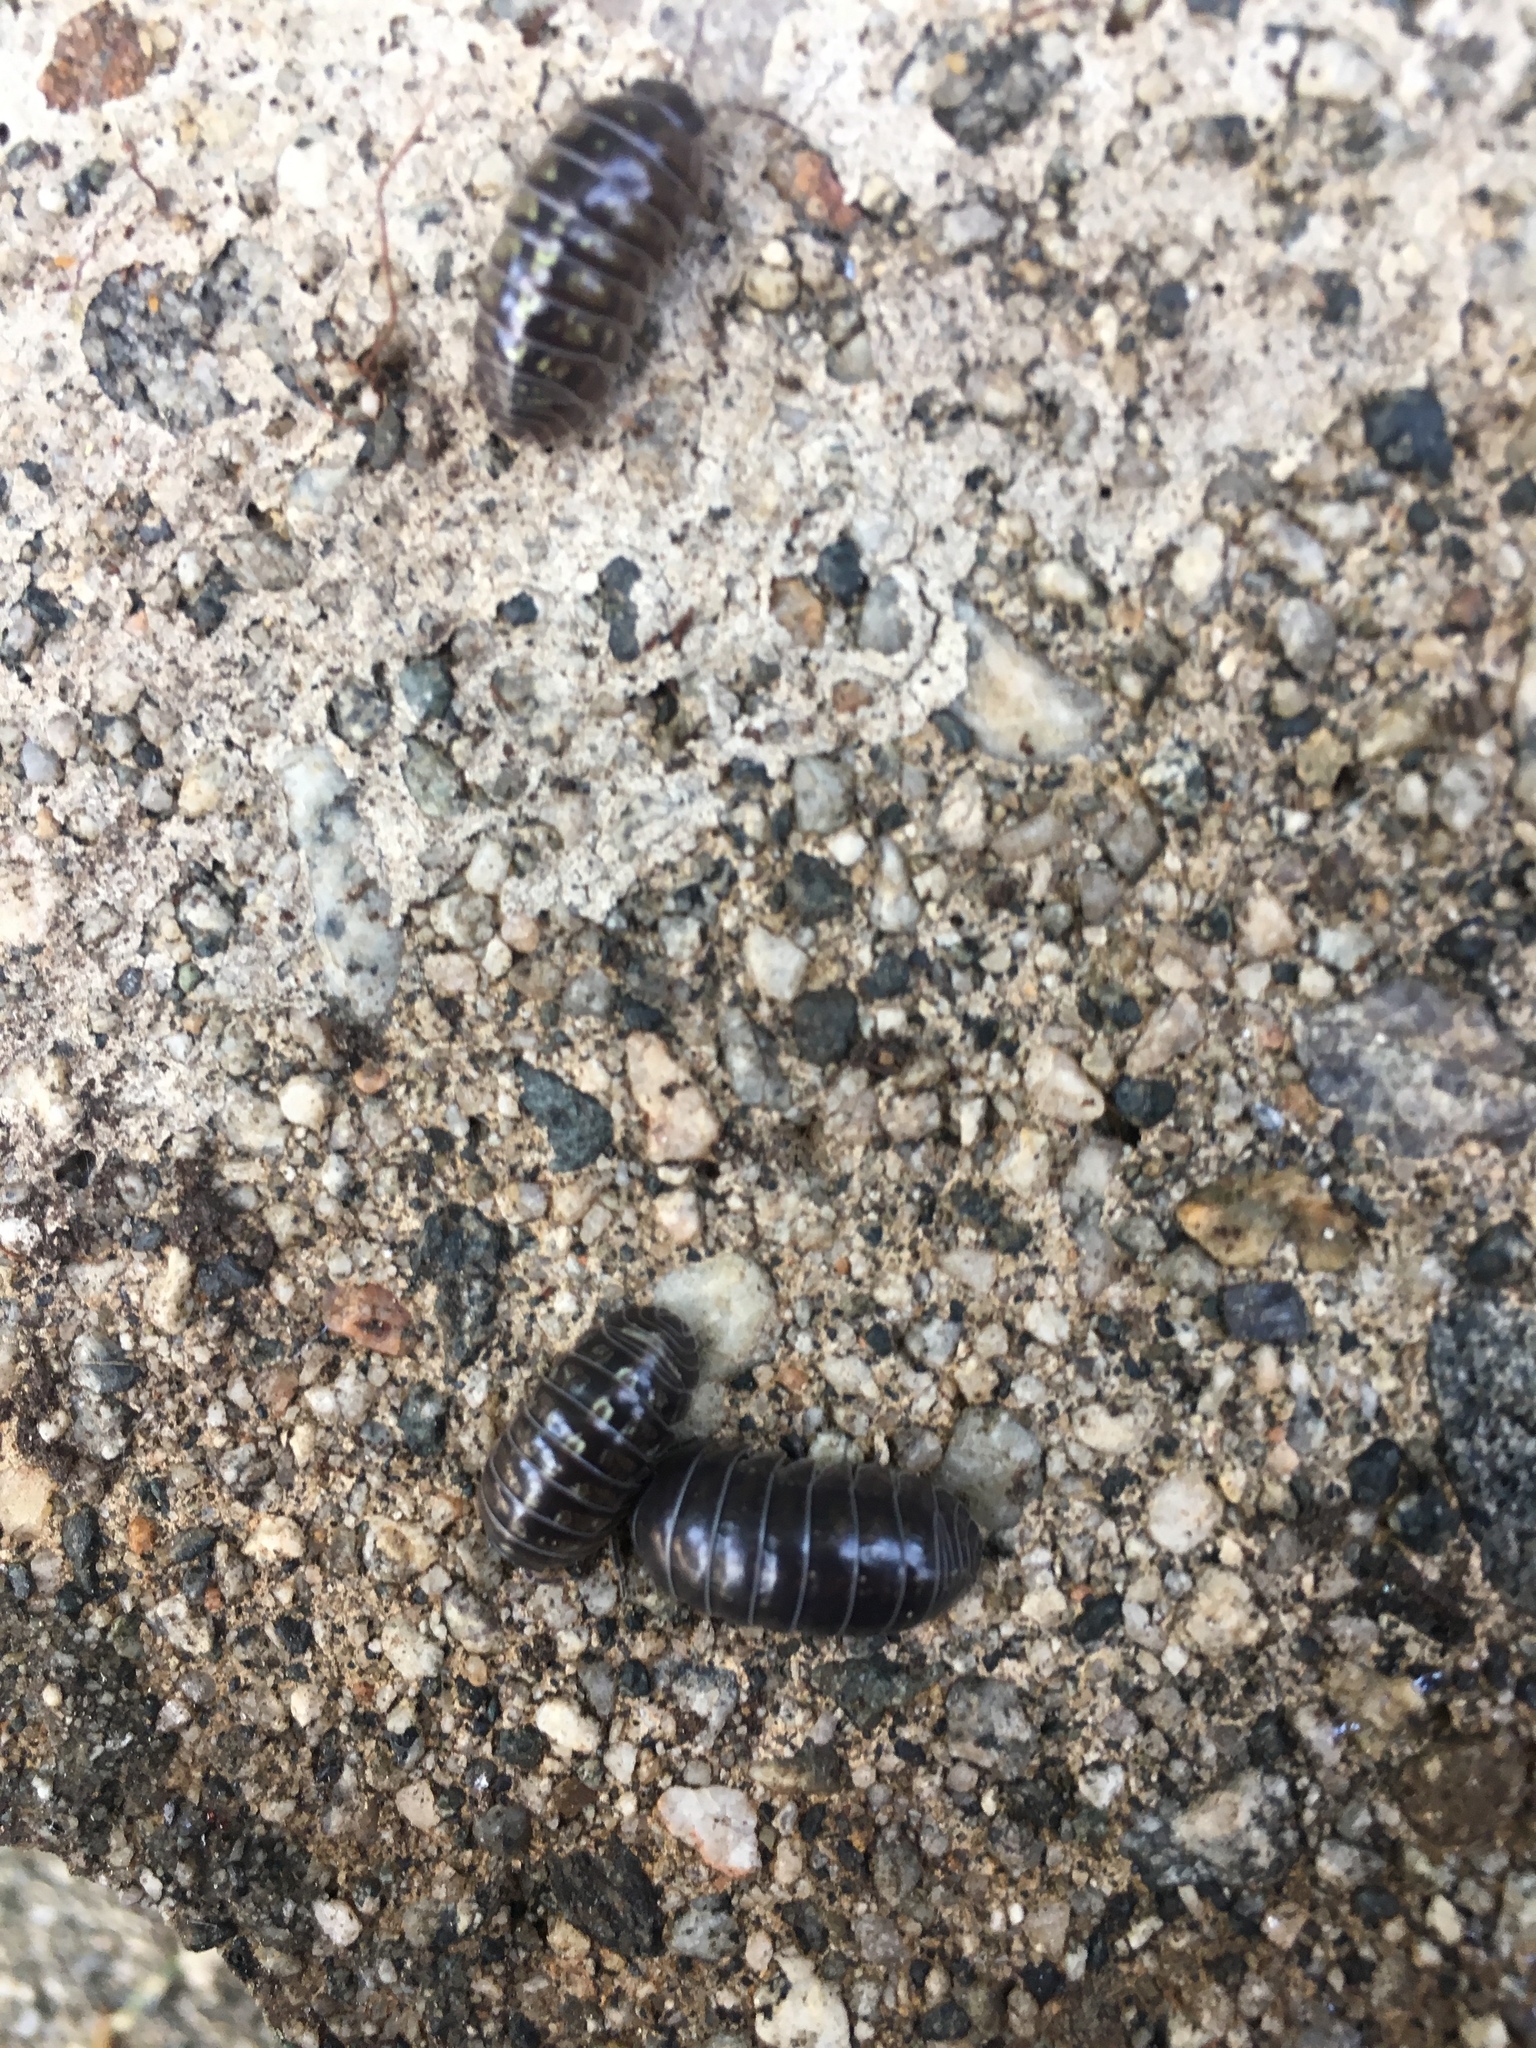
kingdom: Animalia
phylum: Arthropoda
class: Malacostraca
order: Isopoda
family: Armadillidiidae
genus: Armadillidium
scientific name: Armadillidium vulgare
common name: Common pill woodlouse
